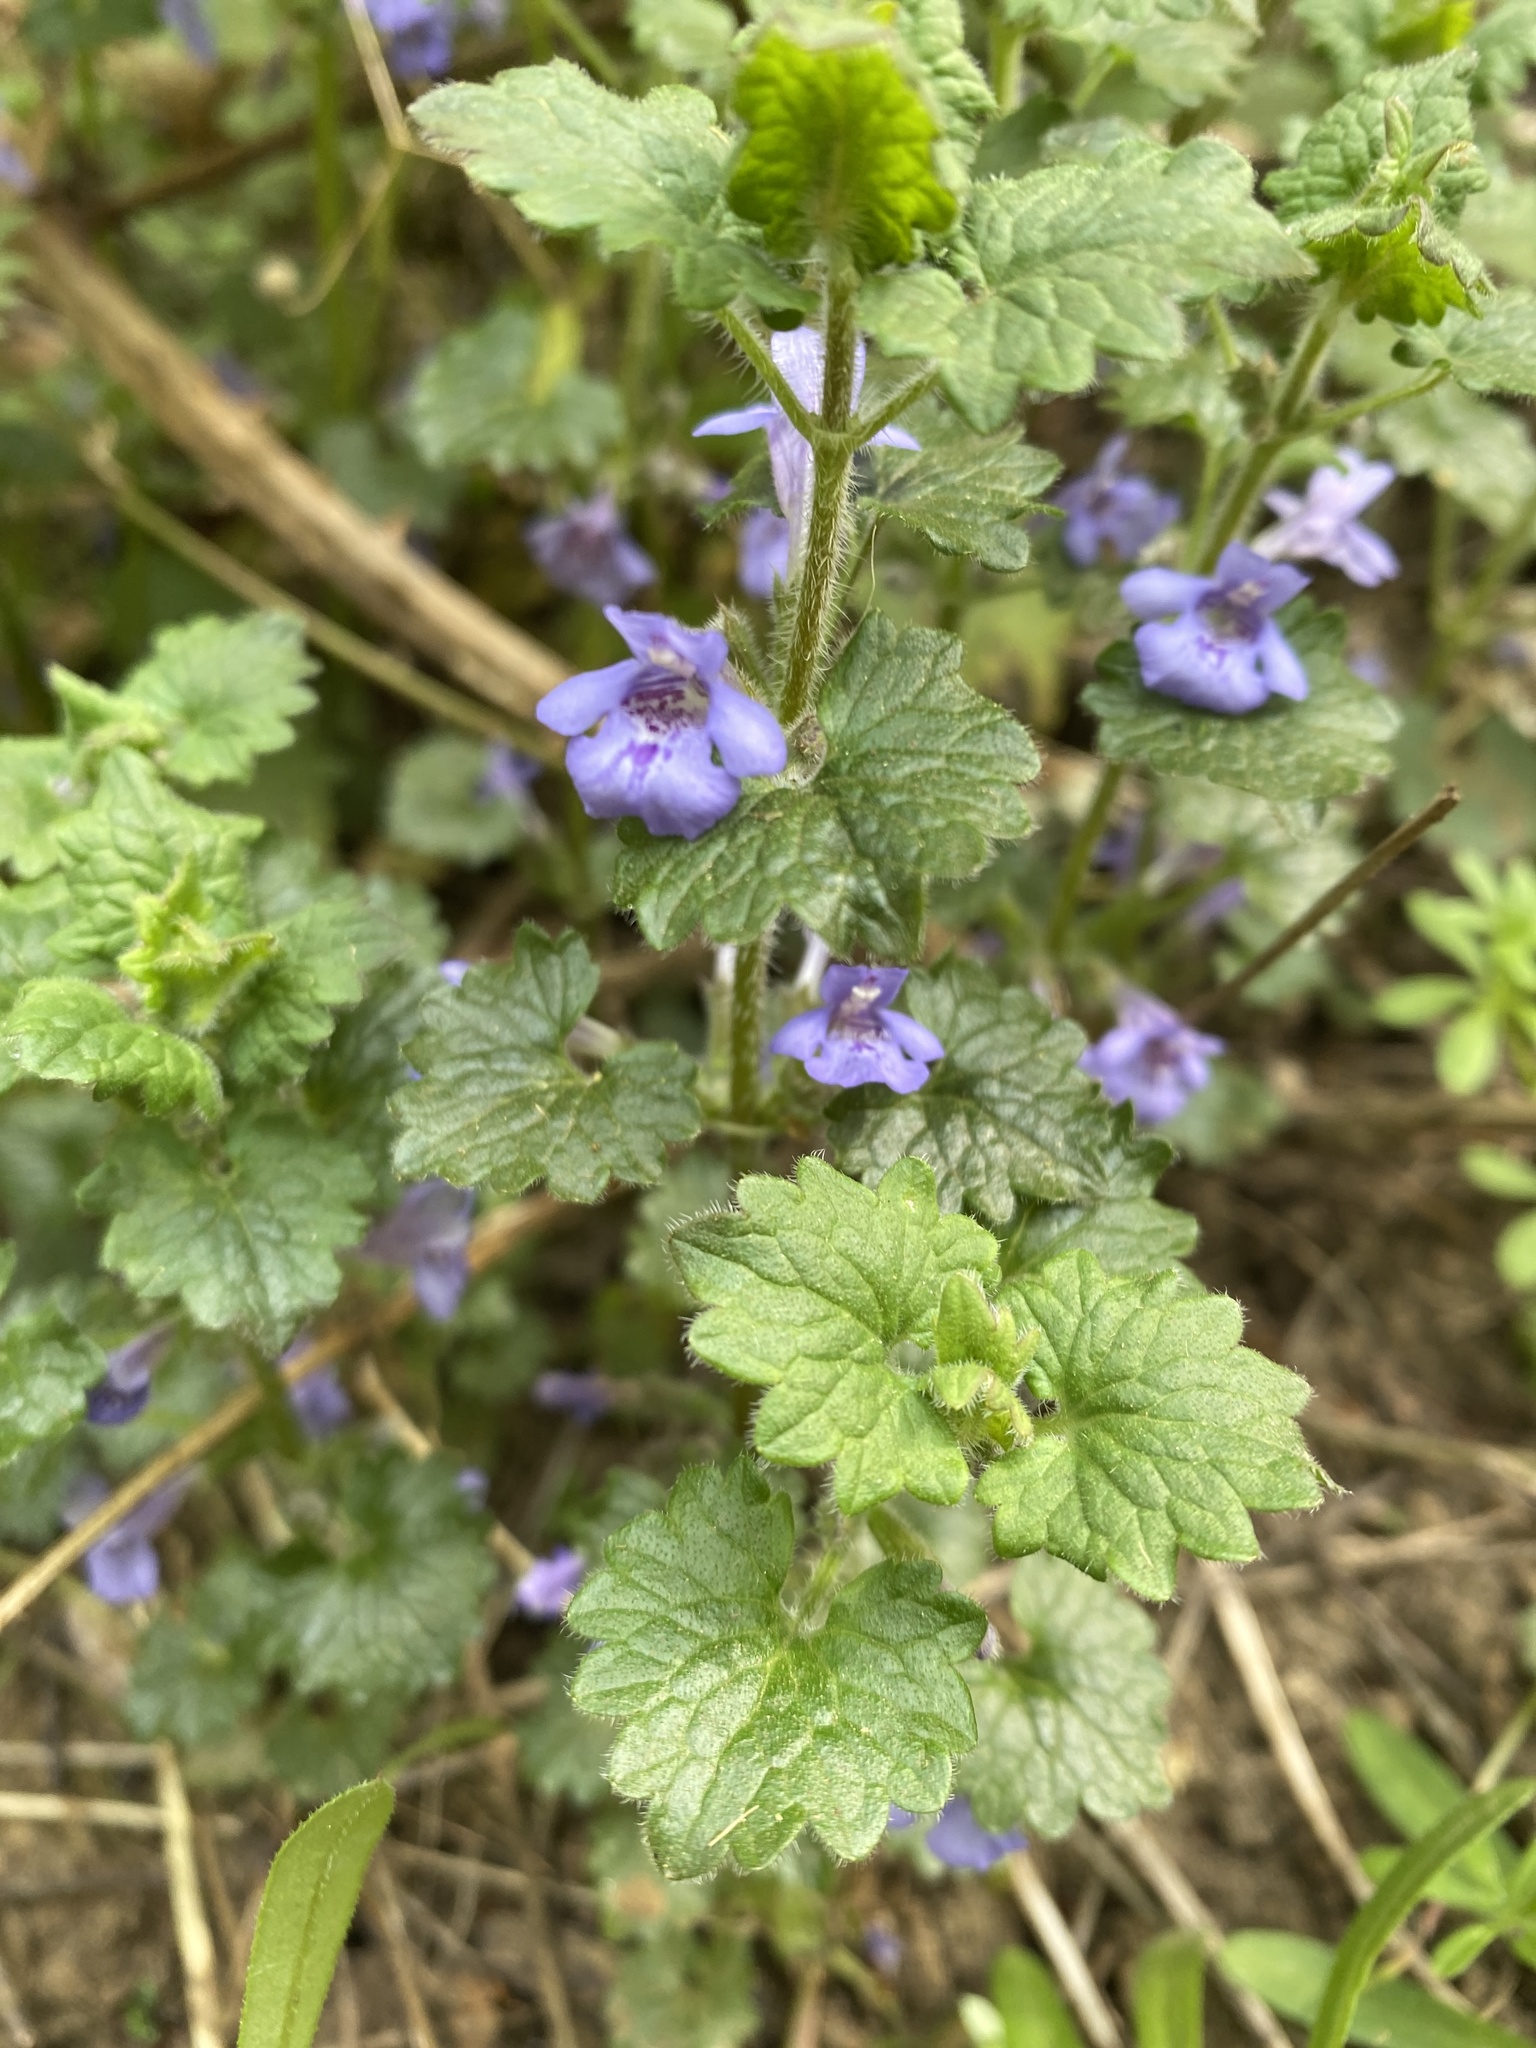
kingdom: Plantae
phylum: Tracheophyta
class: Magnoliopsida
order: Lamiales
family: Lamiaceae
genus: Glechoma
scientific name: Glechoma hederacea
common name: Ground ivy
